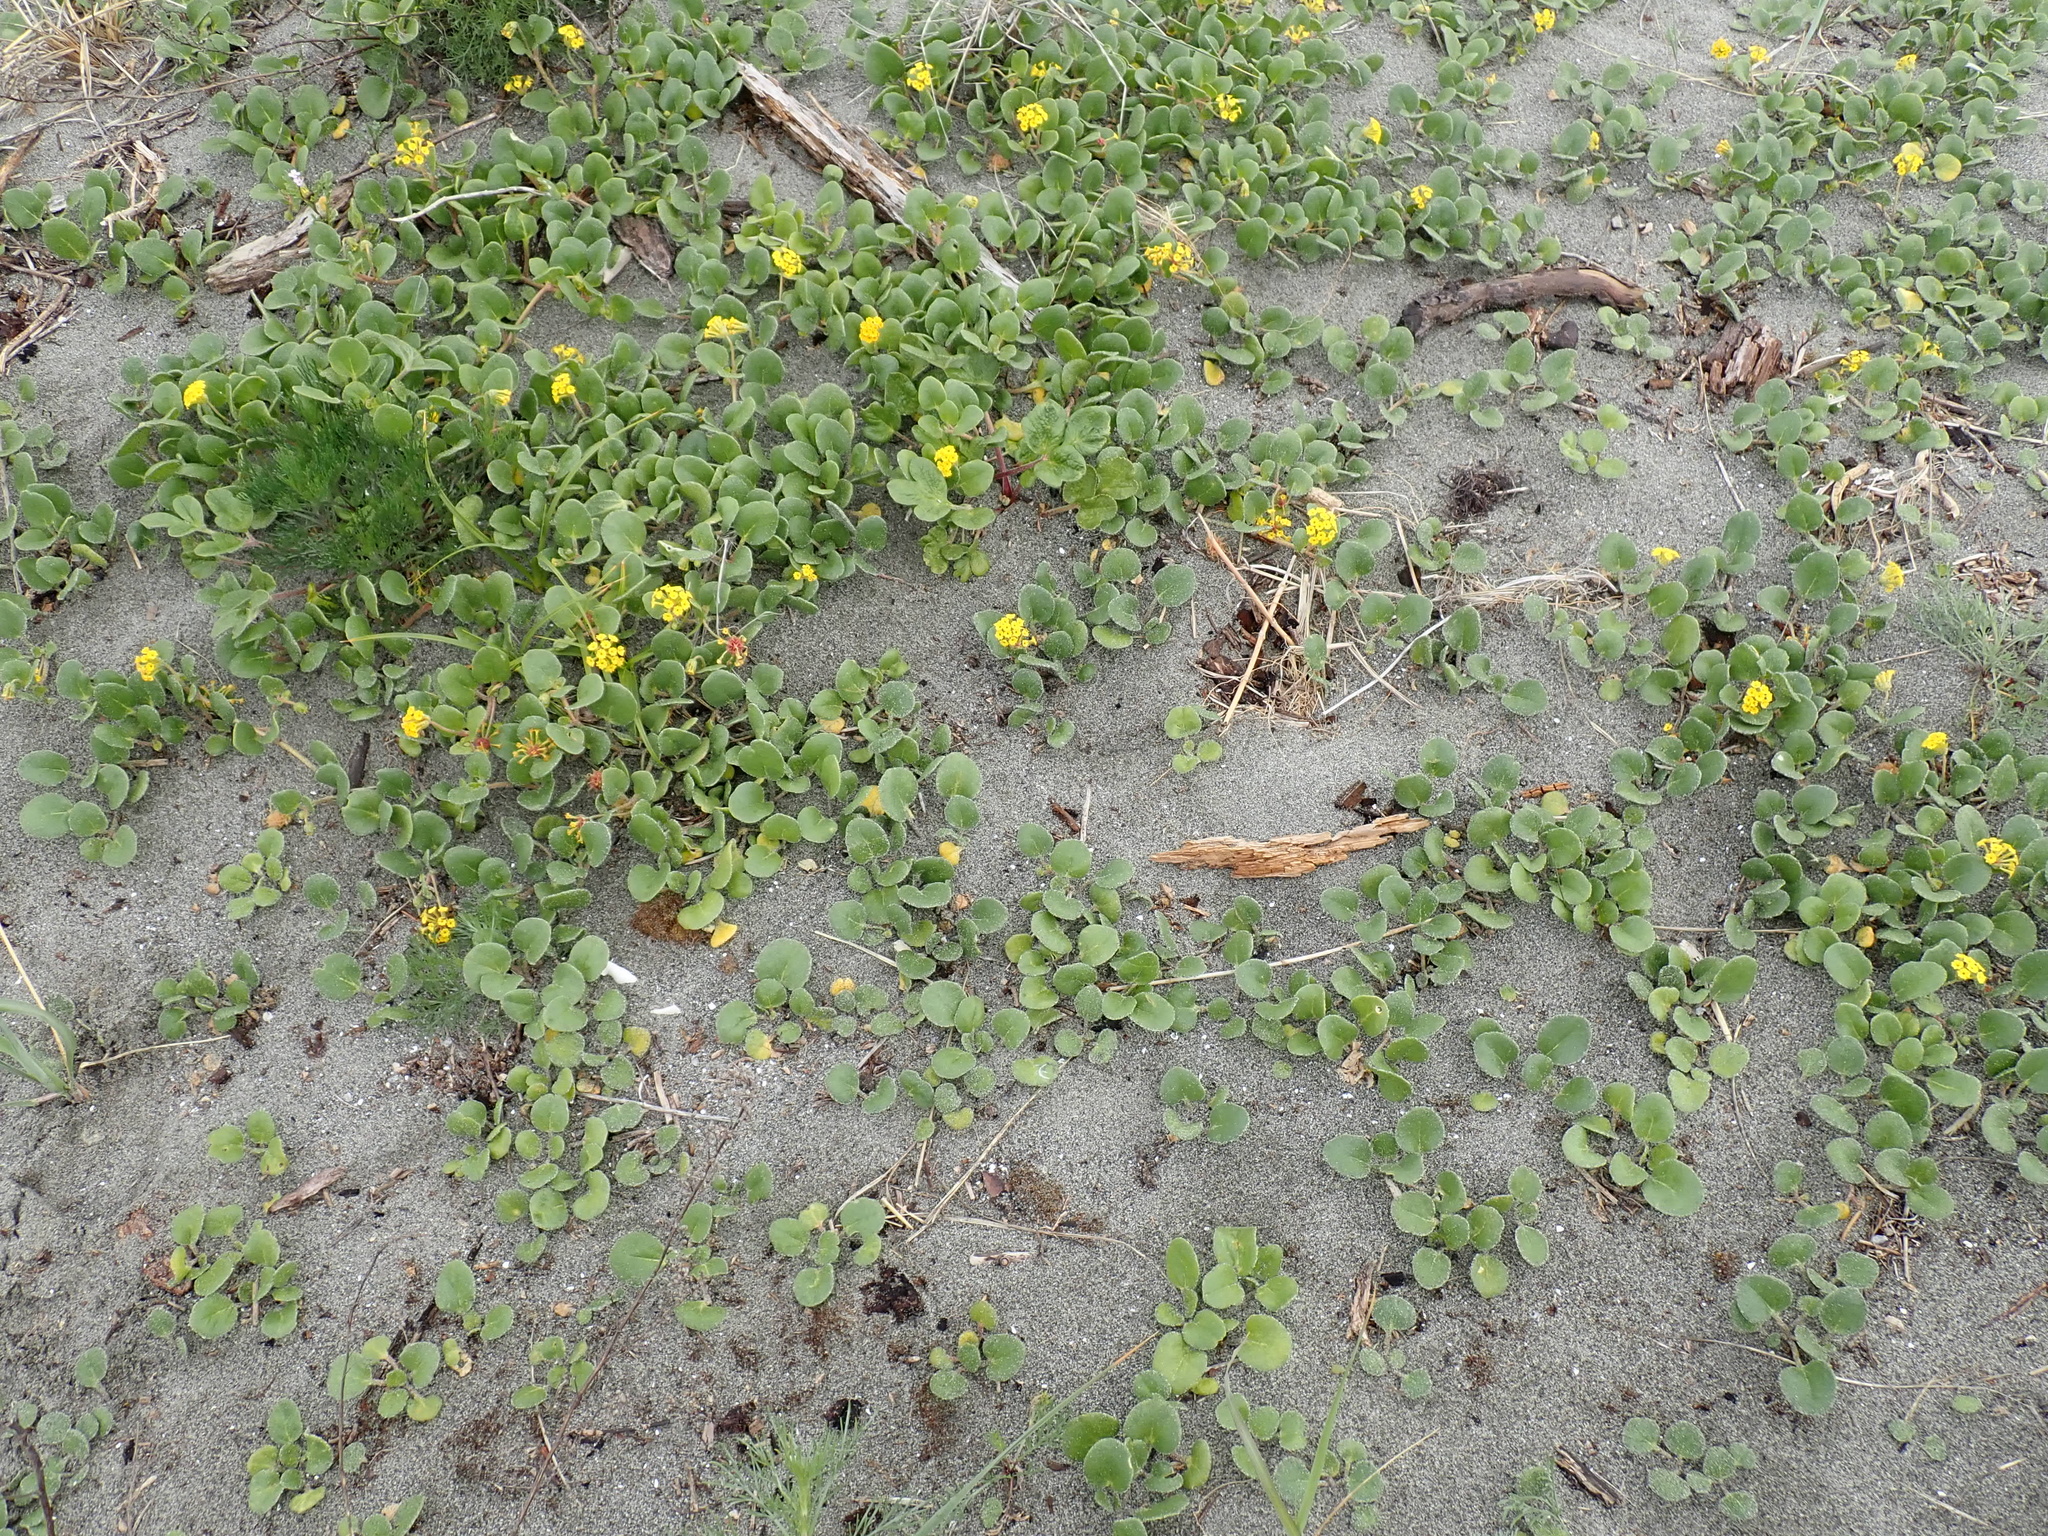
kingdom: Plantae
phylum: Tracheophyta
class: Magnoliopsida
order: Caryophyllales
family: Nyctaginaceae
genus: Abronia
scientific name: Abronia latifolia
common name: Yellow sand-verbena
